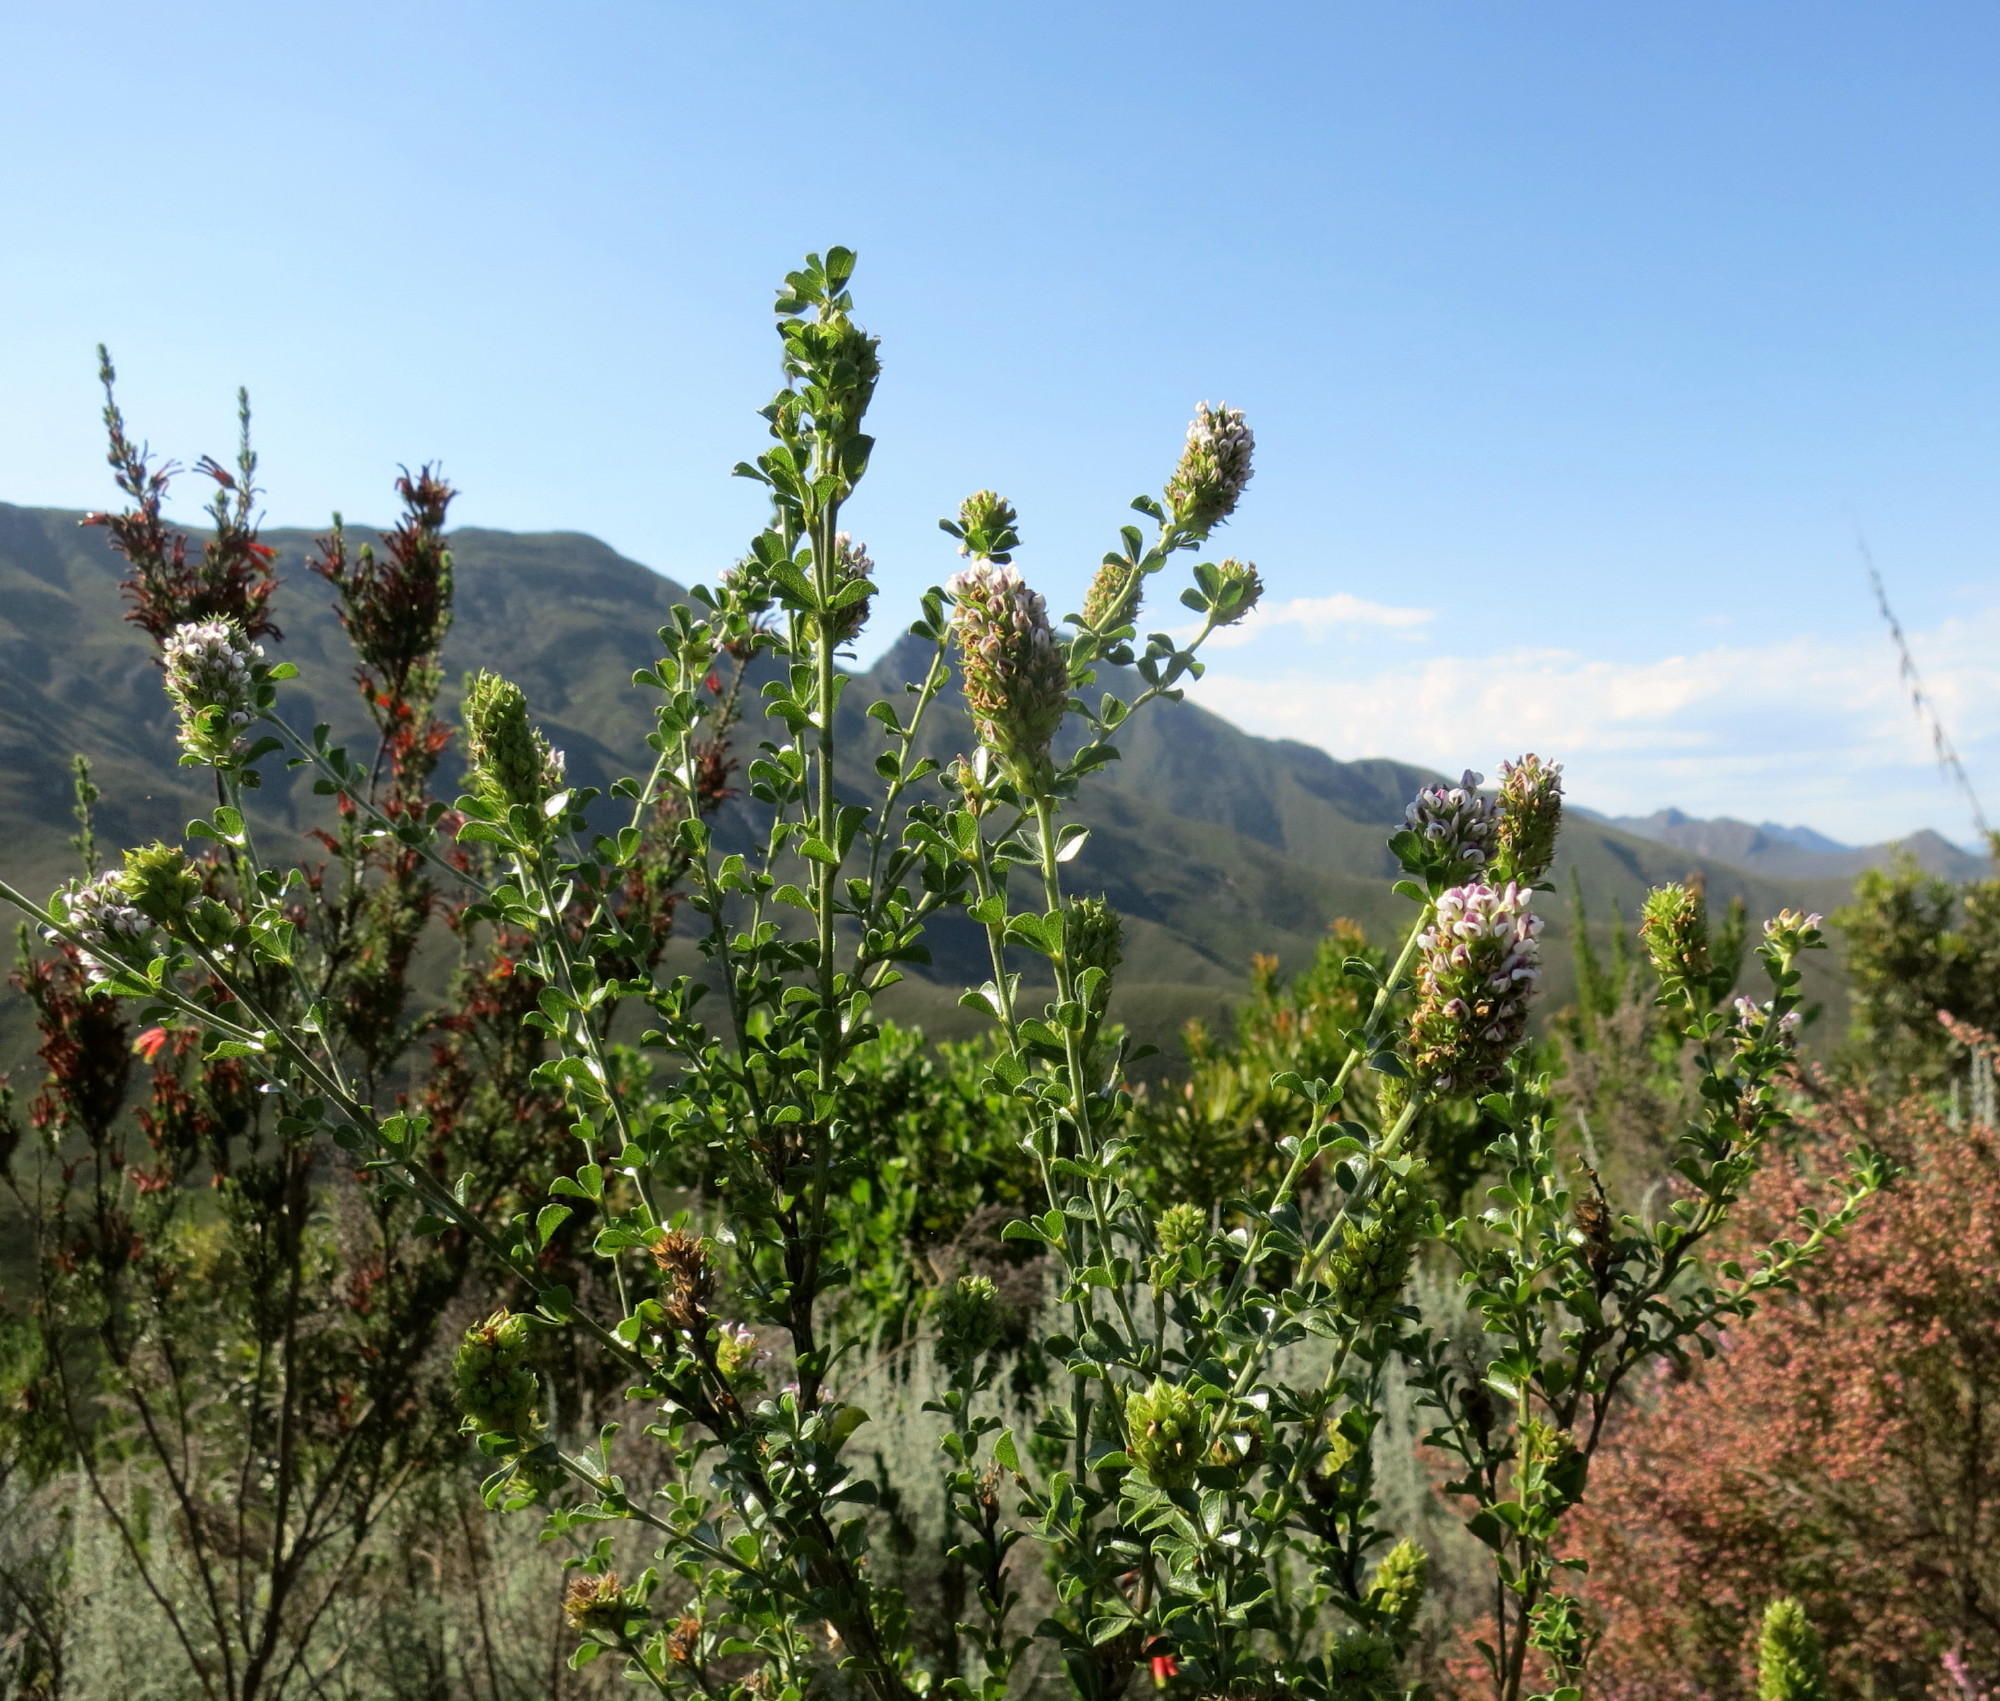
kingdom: Plantae
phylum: Tracheophyta
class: Magnoliopsida
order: Fabales
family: Fabaceae
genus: Psoralea
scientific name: Psoralea stachyera
